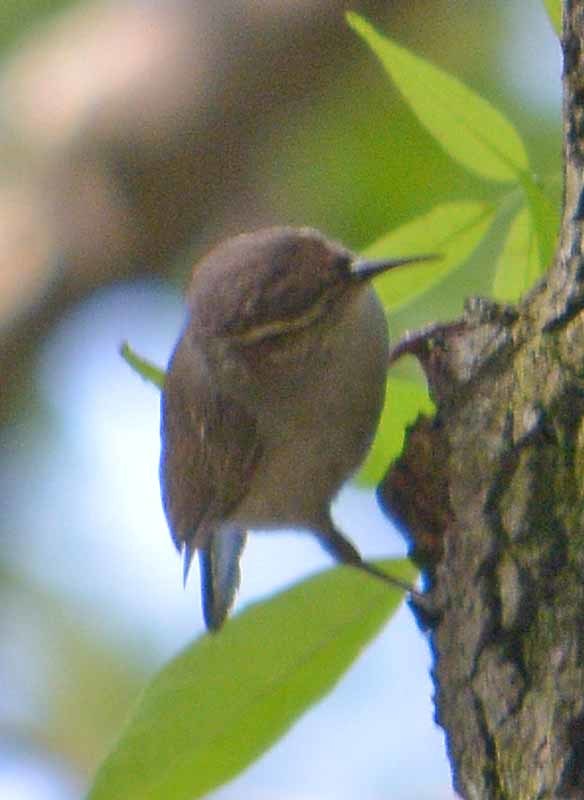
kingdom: Animalia
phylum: Chordata
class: Aves
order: Passeriformes
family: Troglodytidae
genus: Thryomanes
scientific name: Thryomanes bewickii
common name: Bewick's wren
